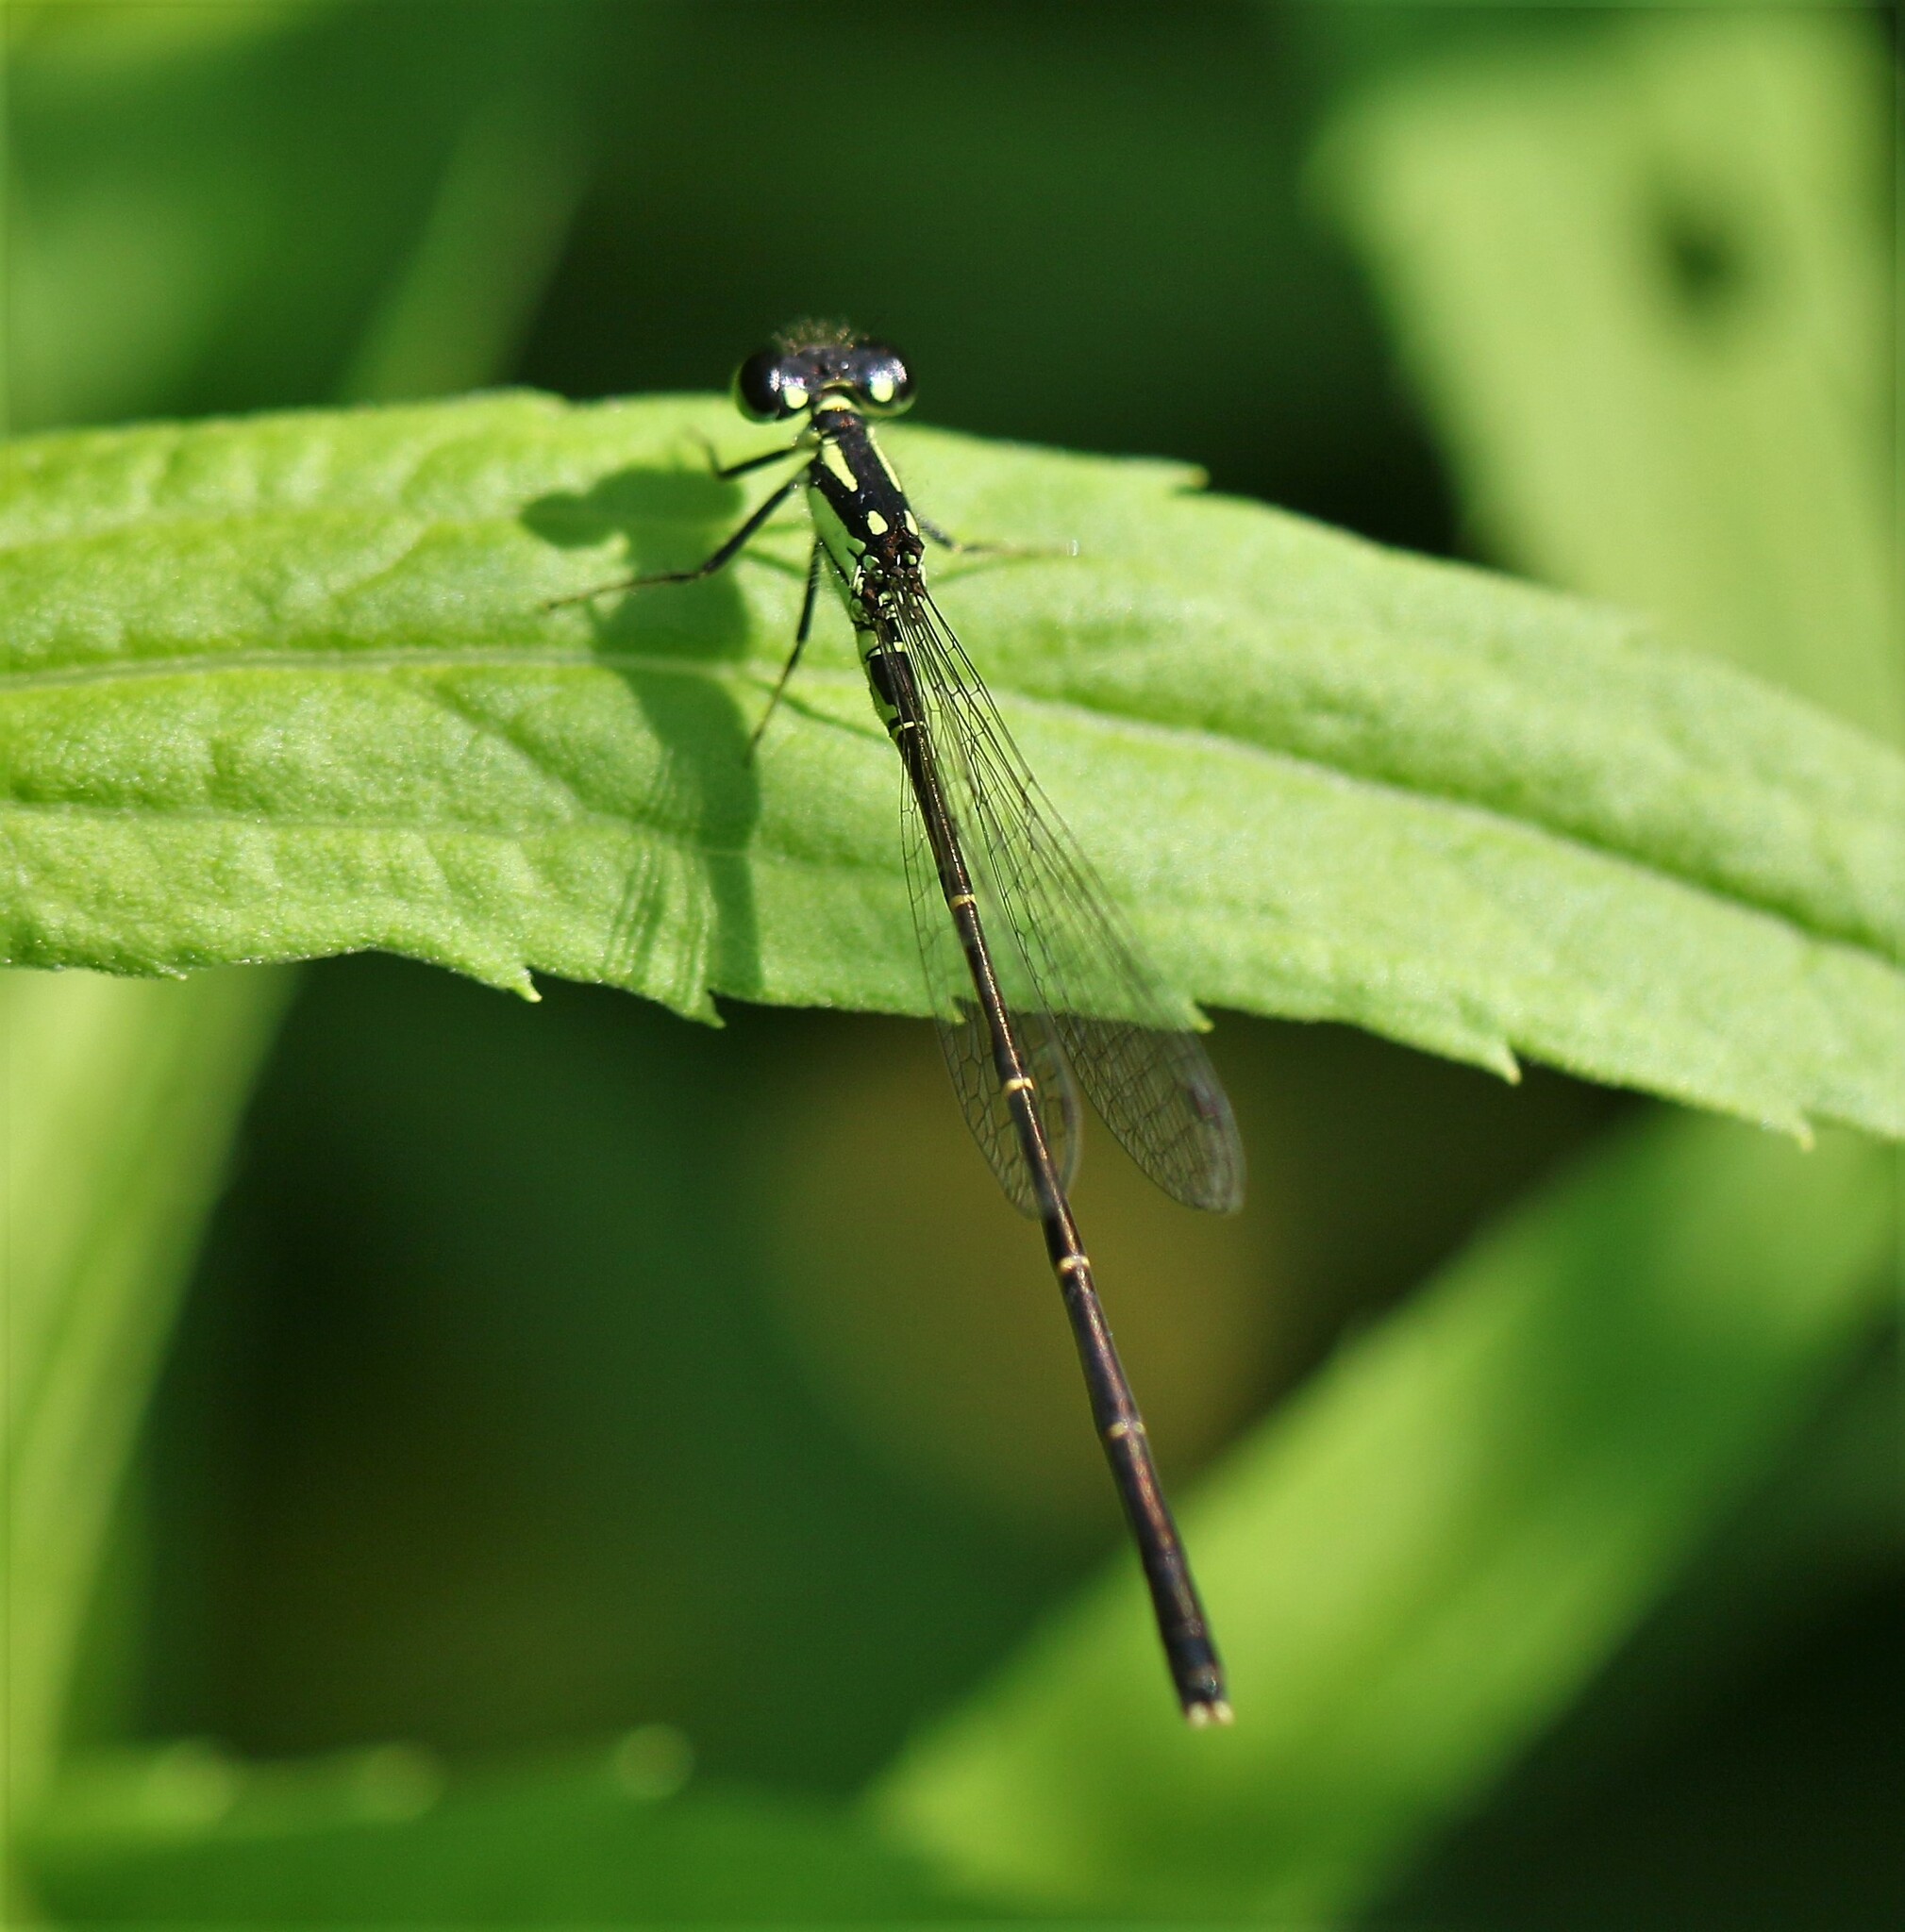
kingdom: Animalia
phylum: Arthropoda
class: Insecta
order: Odonata
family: Coenagrionidae
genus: Ischnura
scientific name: Ischnura posita
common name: Fragile forktail
